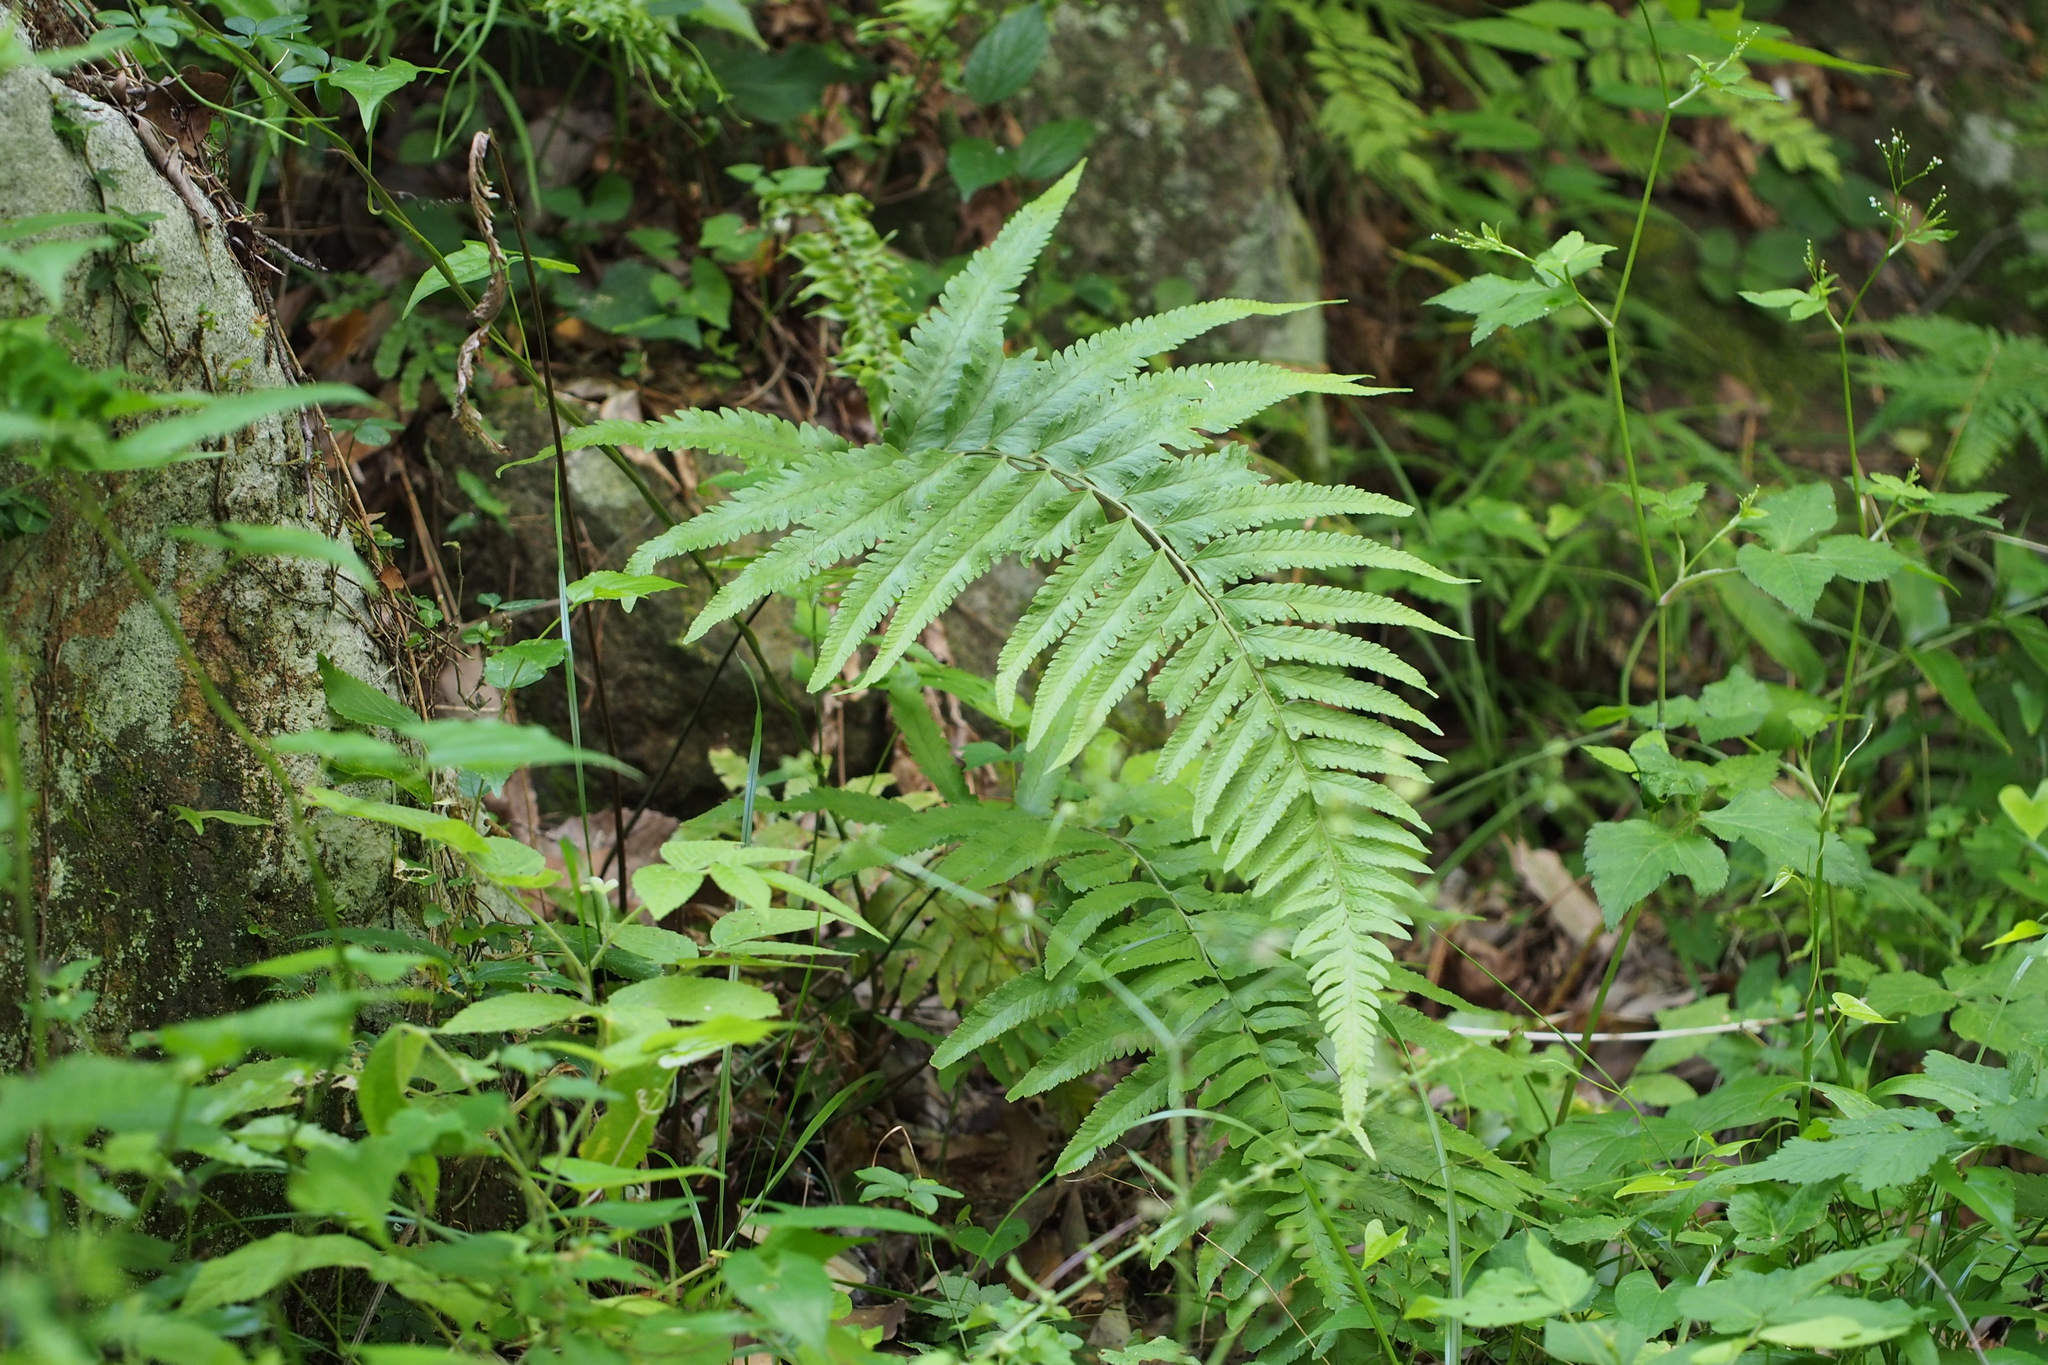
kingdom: Plantae
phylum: Tracheophyta
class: Polypodiopsida
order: Polypodiales
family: Dennstaedtiaceae
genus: Microlepia
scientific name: Microlepia marginata
